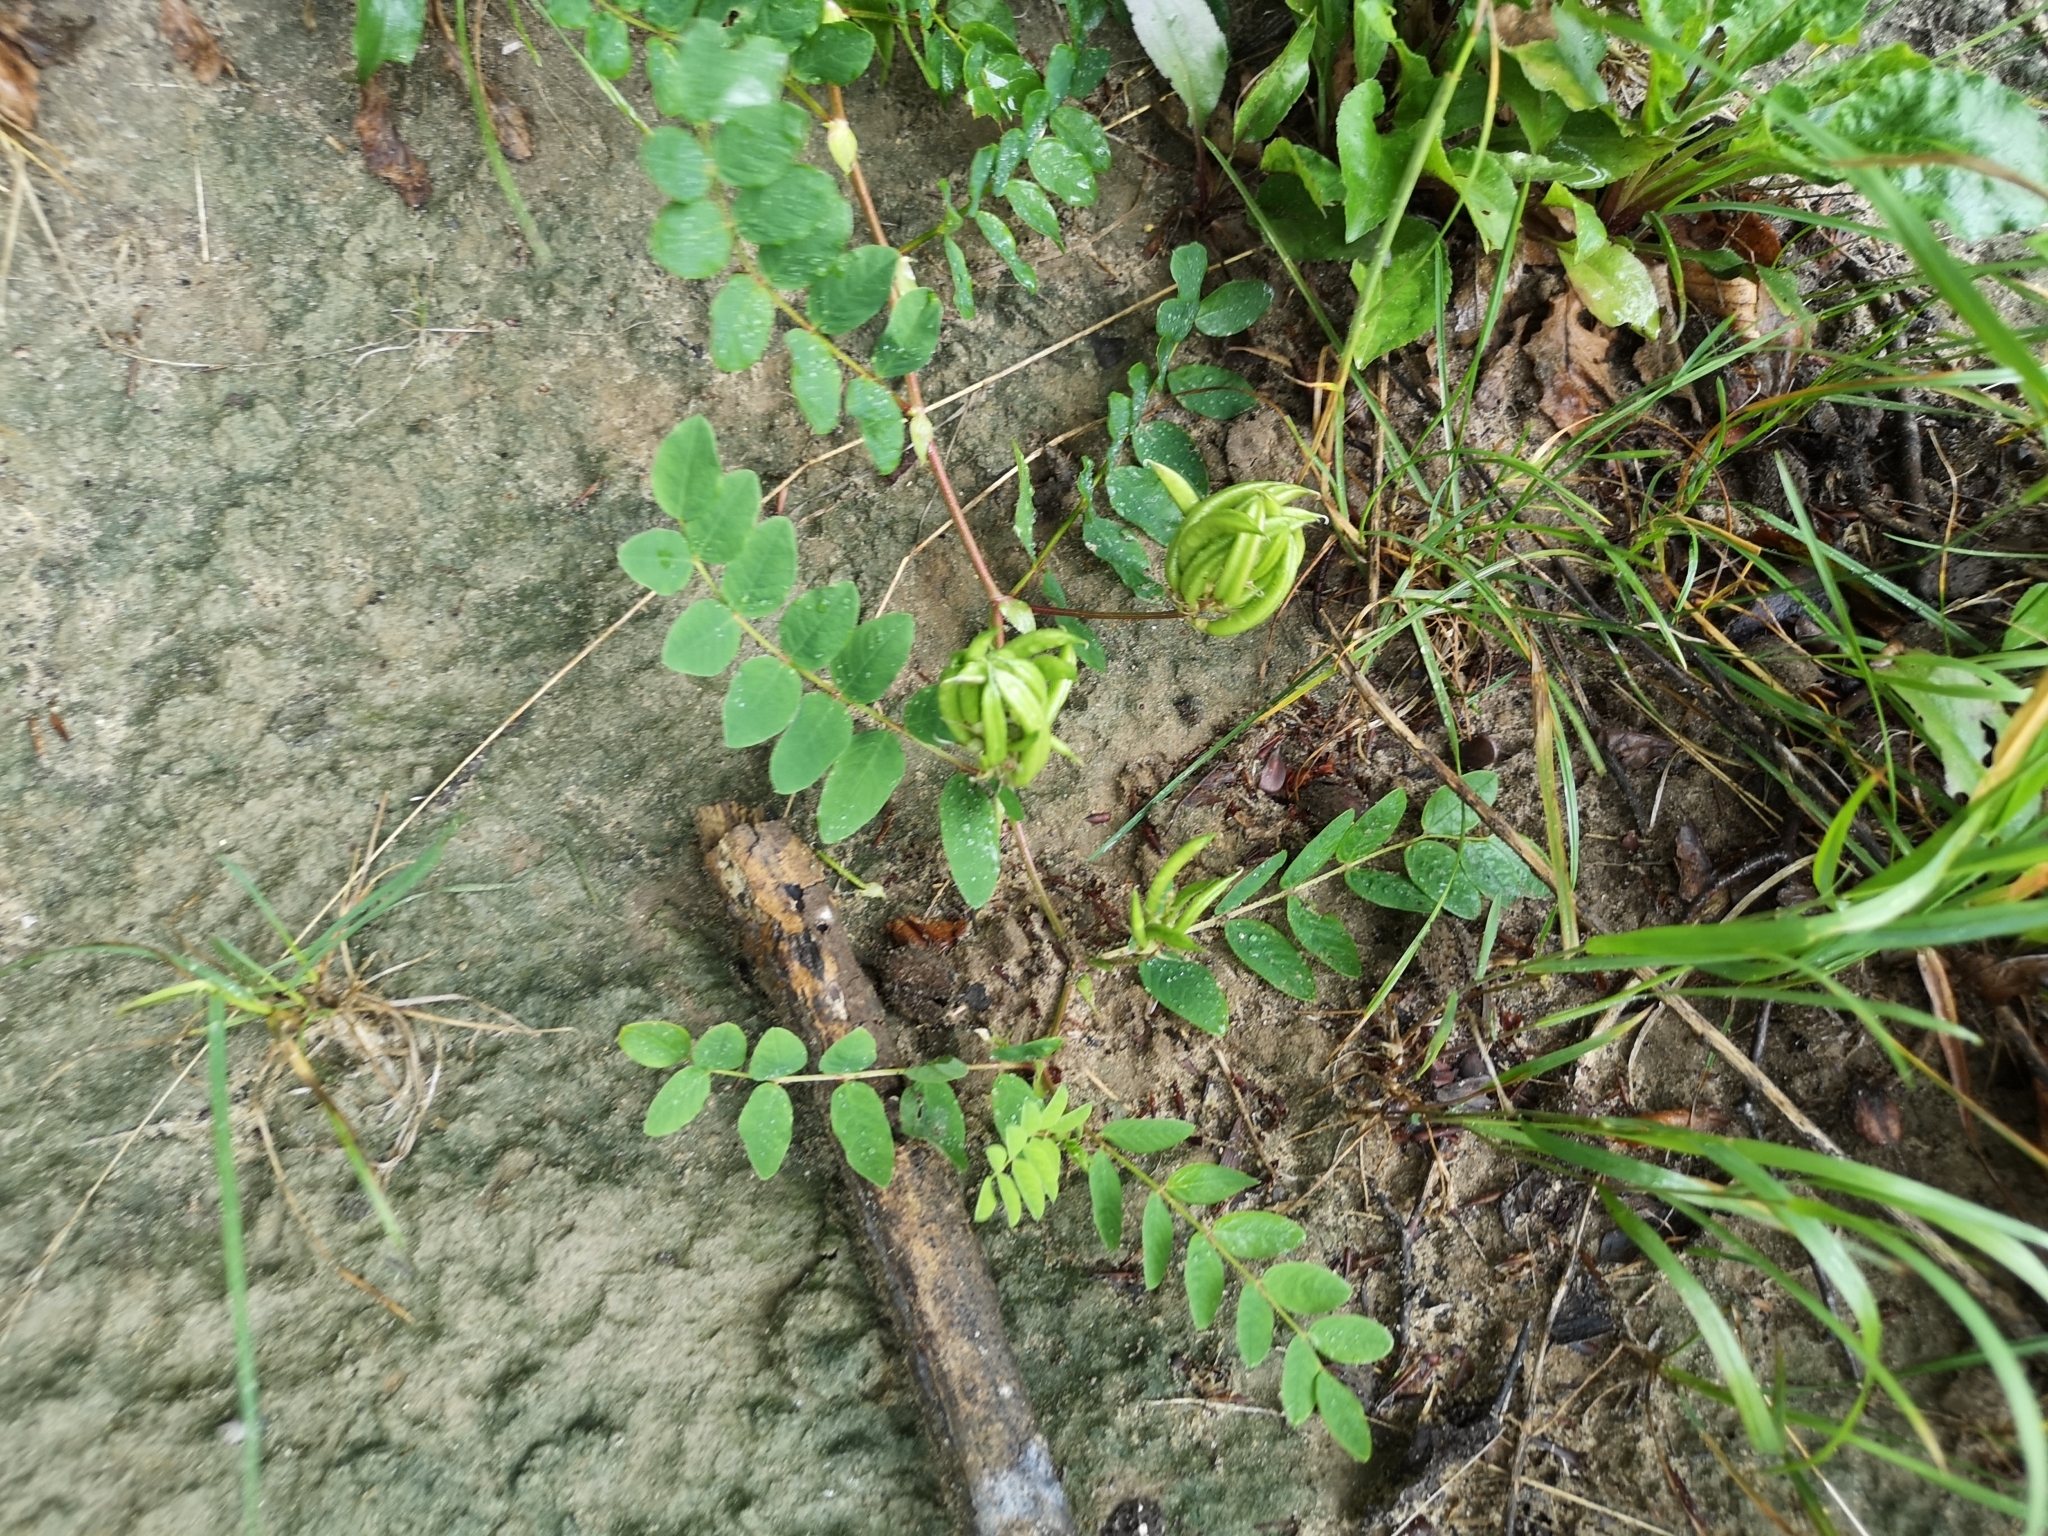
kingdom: Plantae
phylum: Tracheophyta
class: Magnoliopsida
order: Fabales
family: Fabaceae
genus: Astragalus
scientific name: Astragalus glycyphyllos
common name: Wild liquorice
